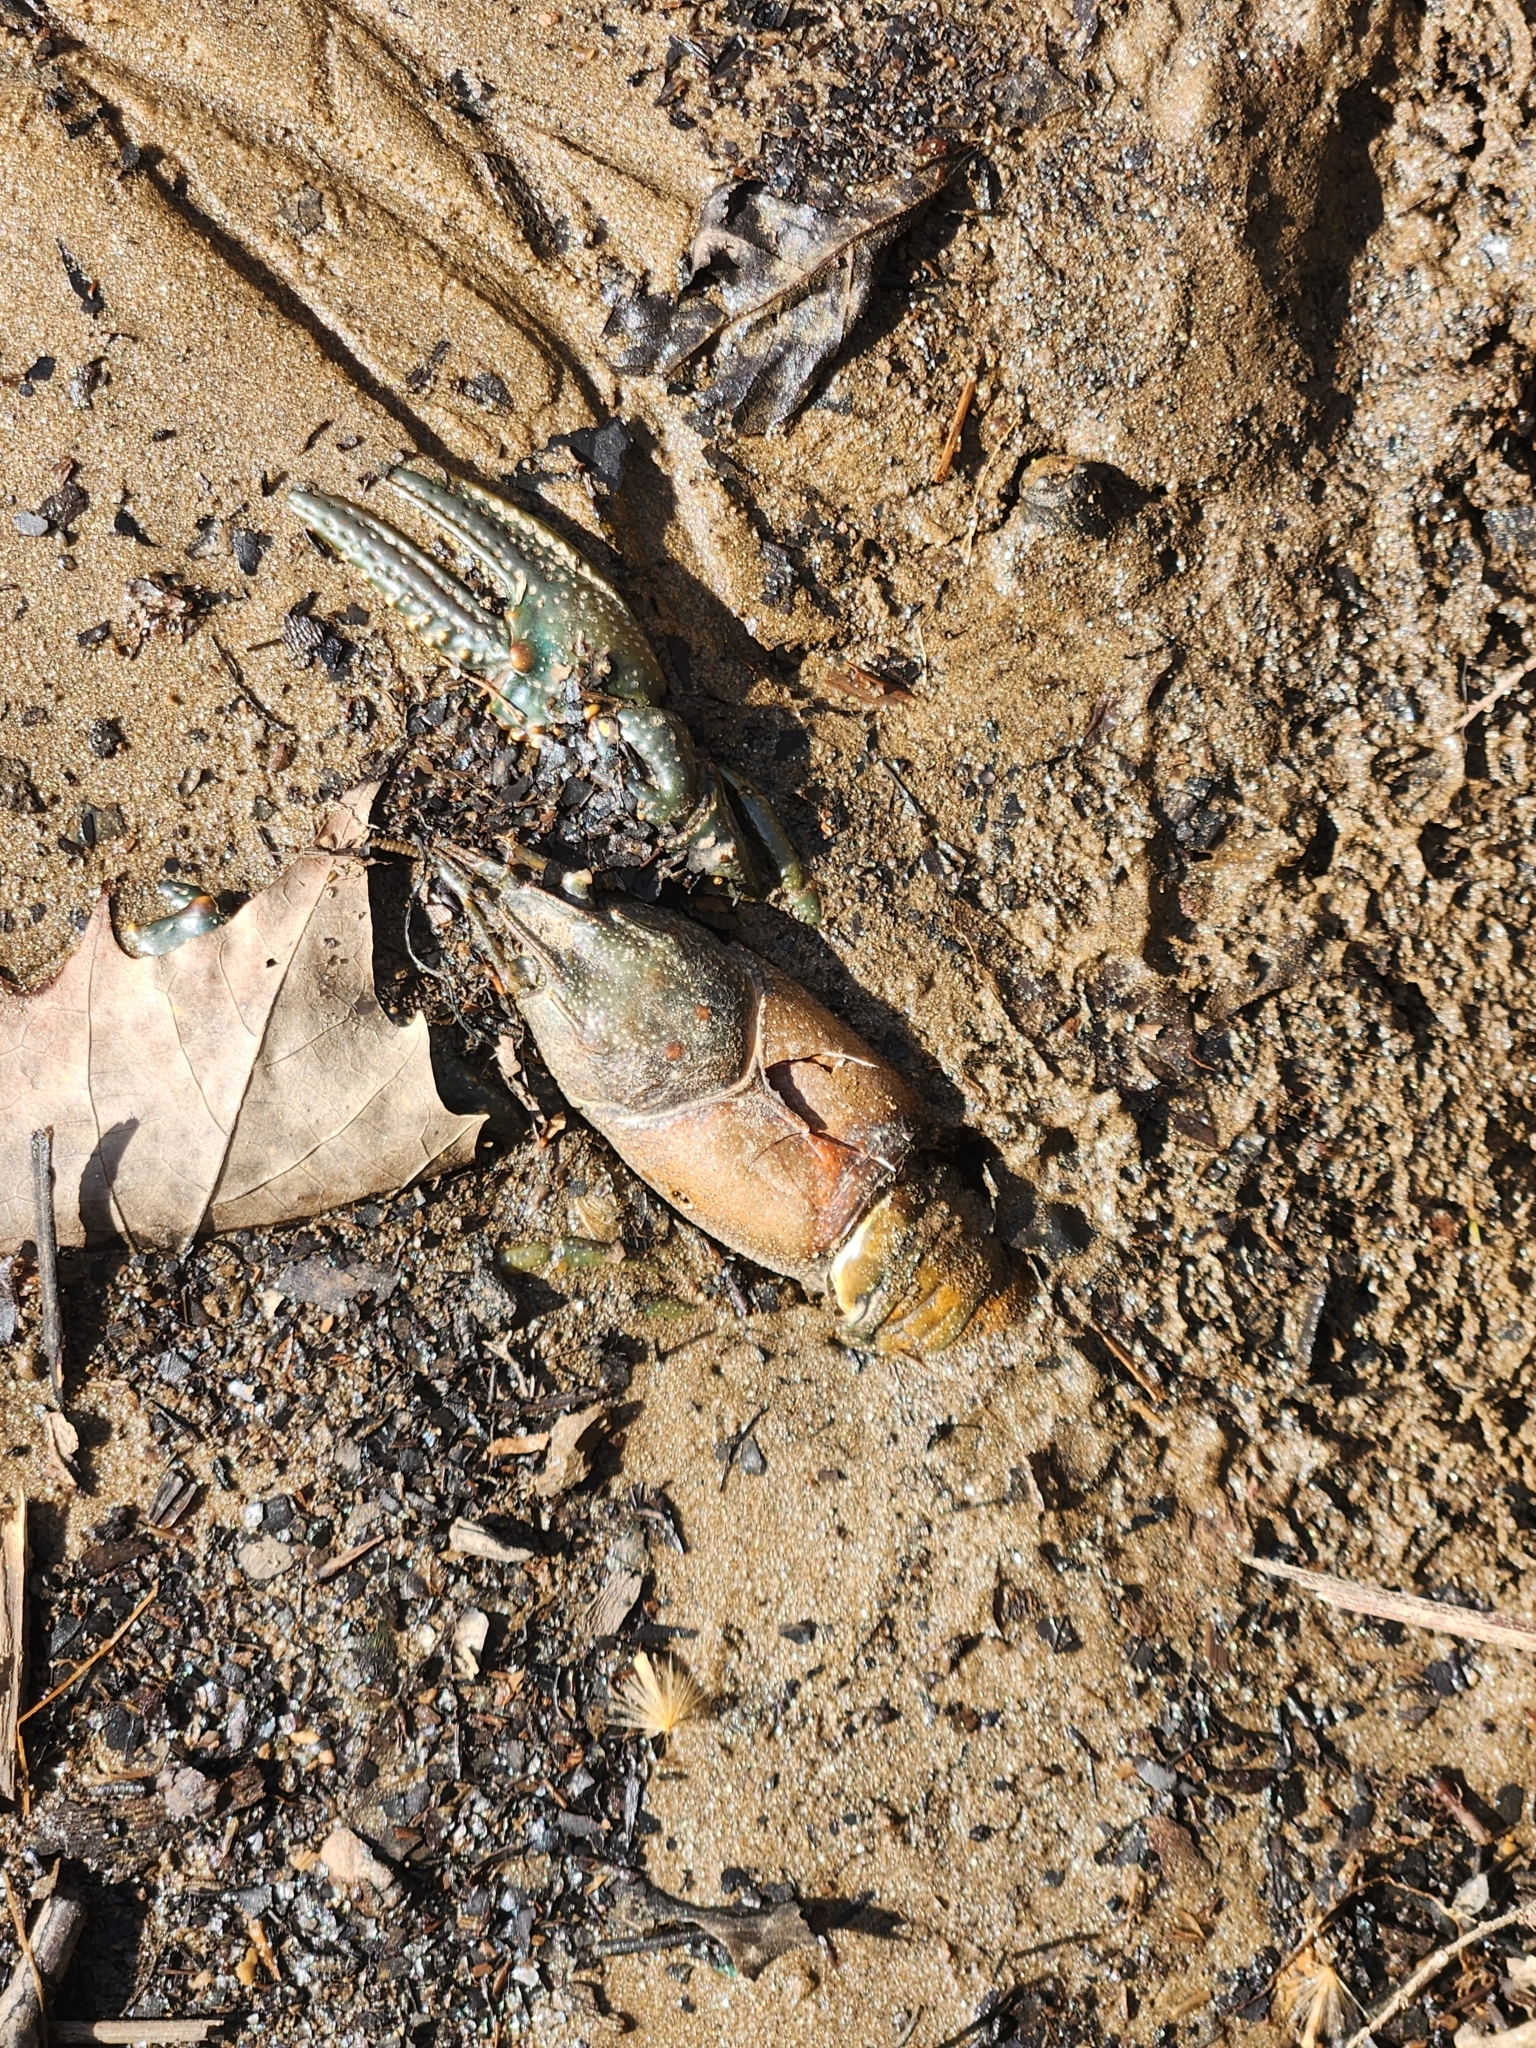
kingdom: Animalia
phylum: Arthropoda
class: Malacostraca
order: Decapoda
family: Cambaridae
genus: Faxonius
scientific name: Faxonius virilis
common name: Virile crayfish
